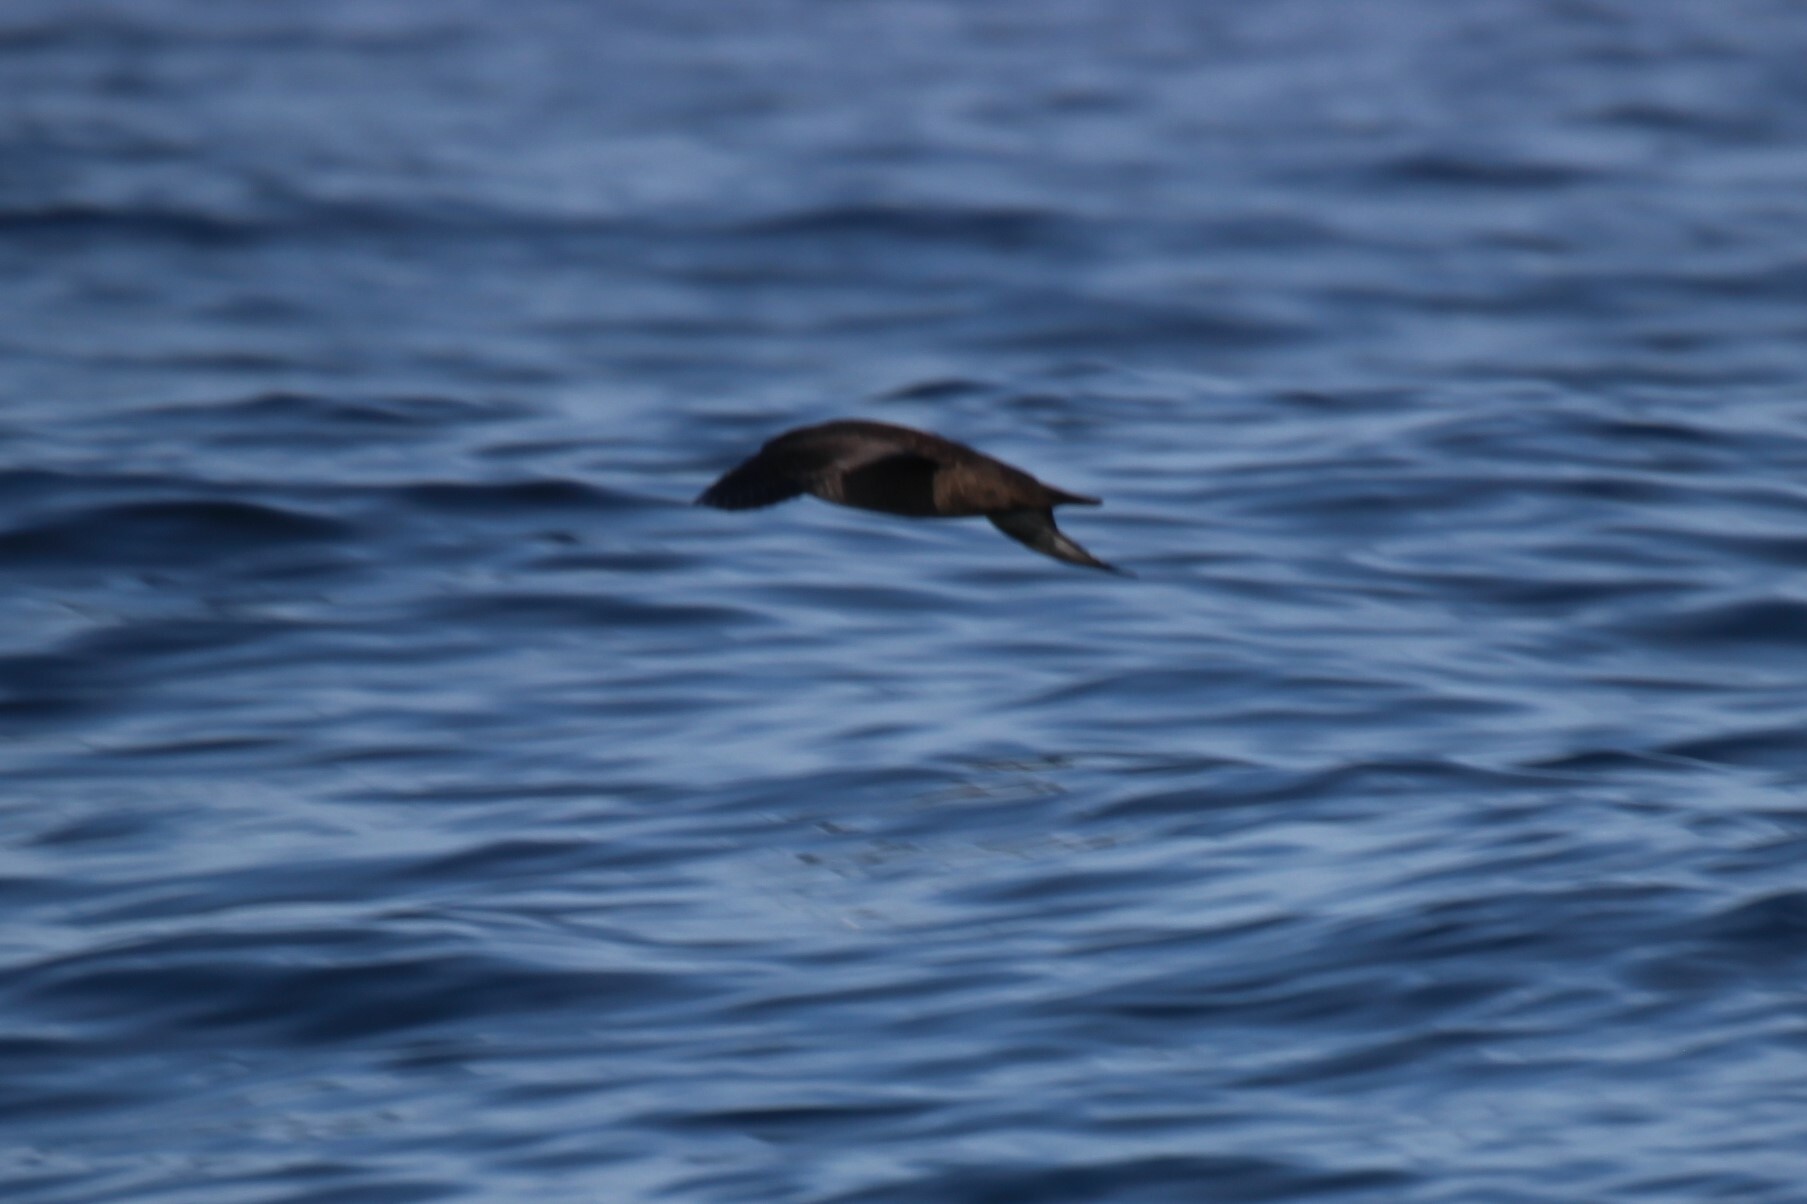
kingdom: Animalia
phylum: Chordata
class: Aves
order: Procellariiformes
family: Procellariidae
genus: Puffinus
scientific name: Puffinus griseus
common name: Sooty shearwater
